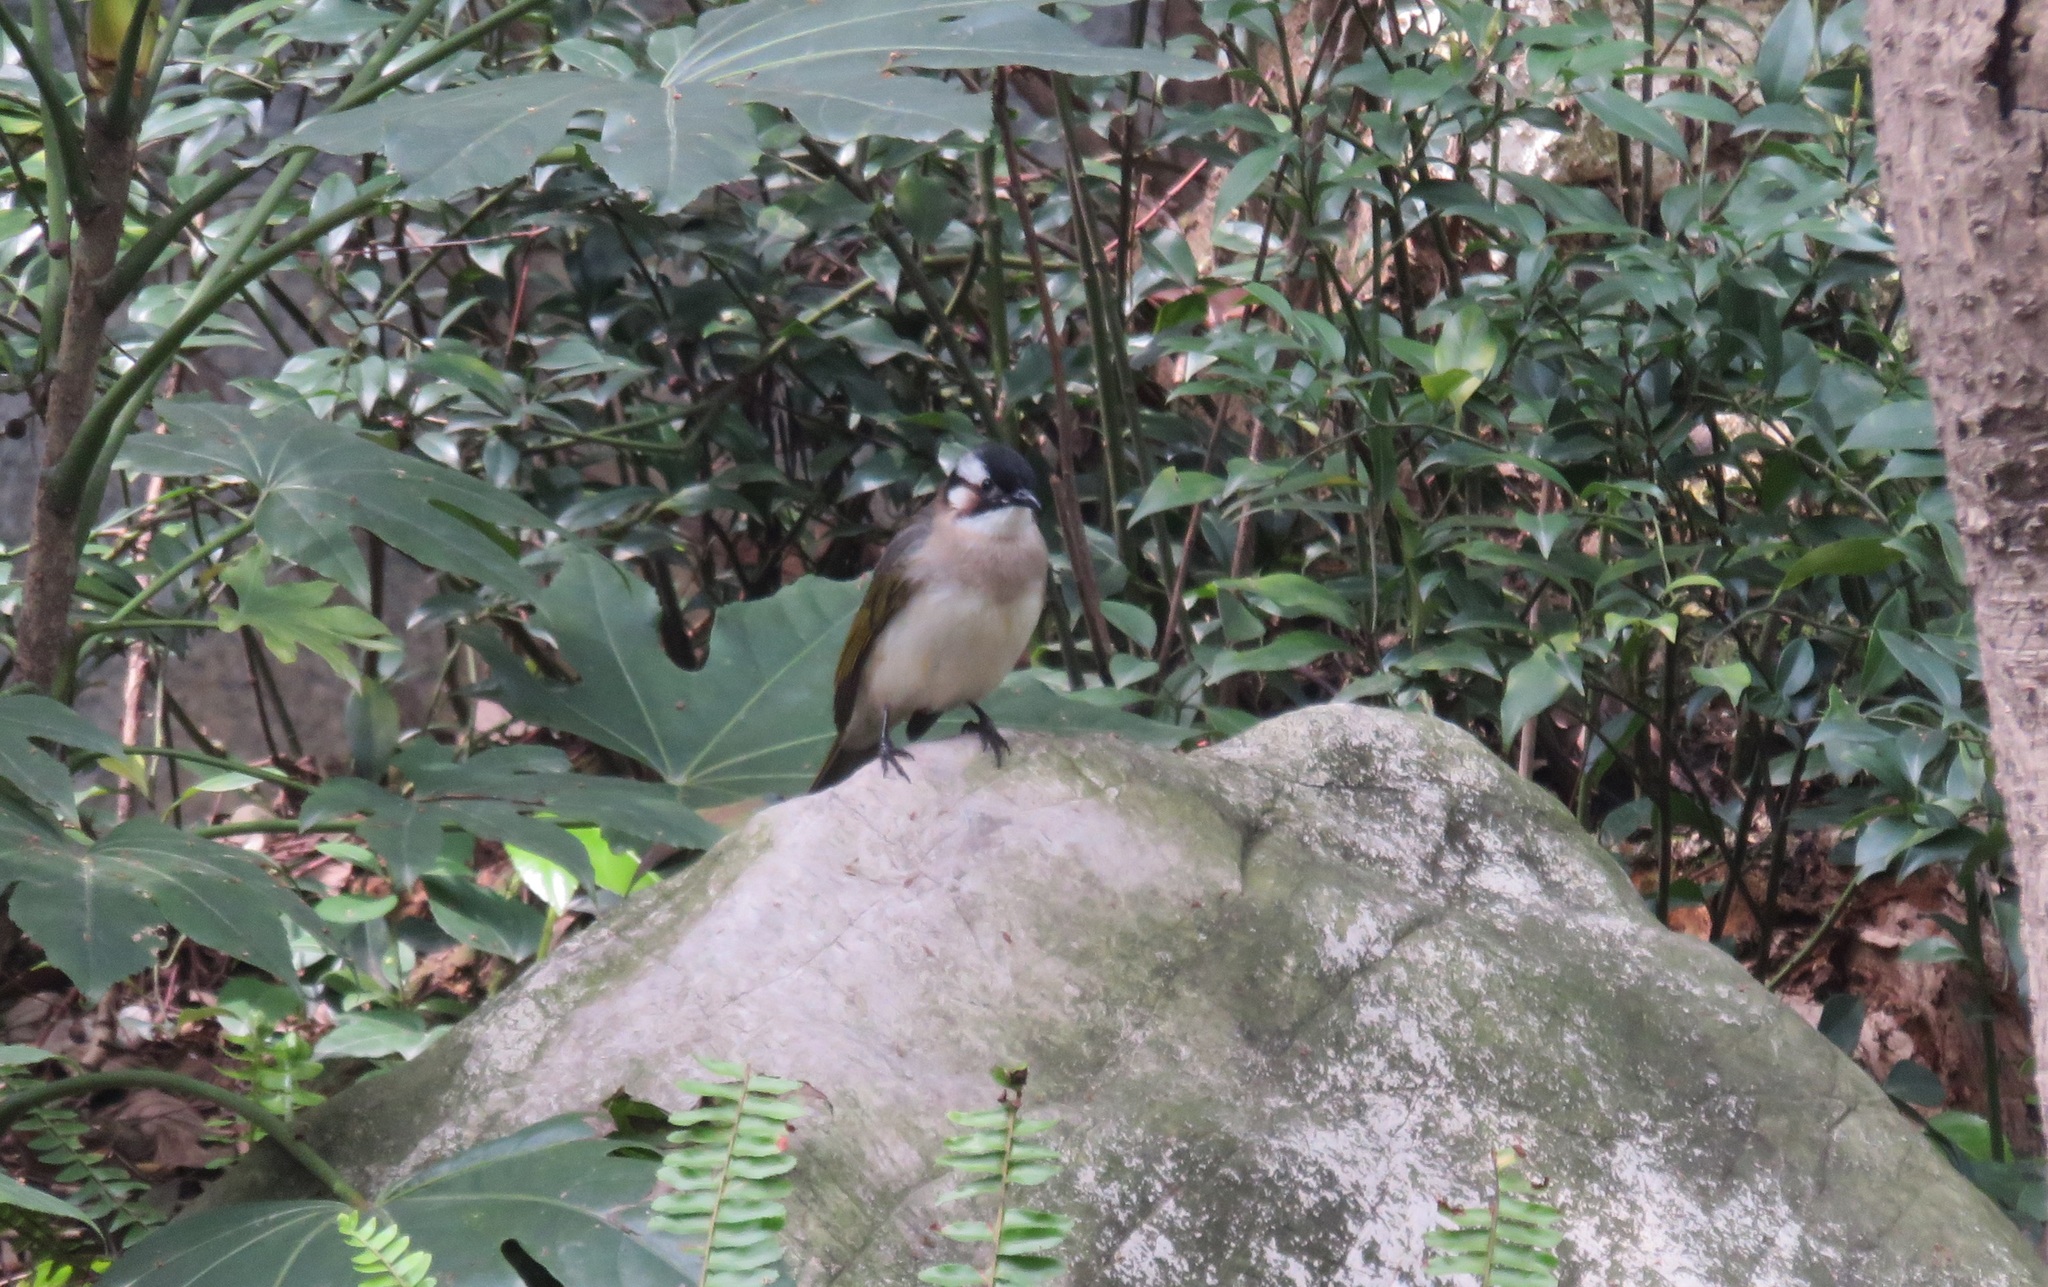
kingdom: Animalia
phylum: Chordata
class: Aves
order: Passeriformes
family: Pycnonotidae
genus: Pycnonotus
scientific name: Pycnonotus sinensis
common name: Light-vented bulbul
